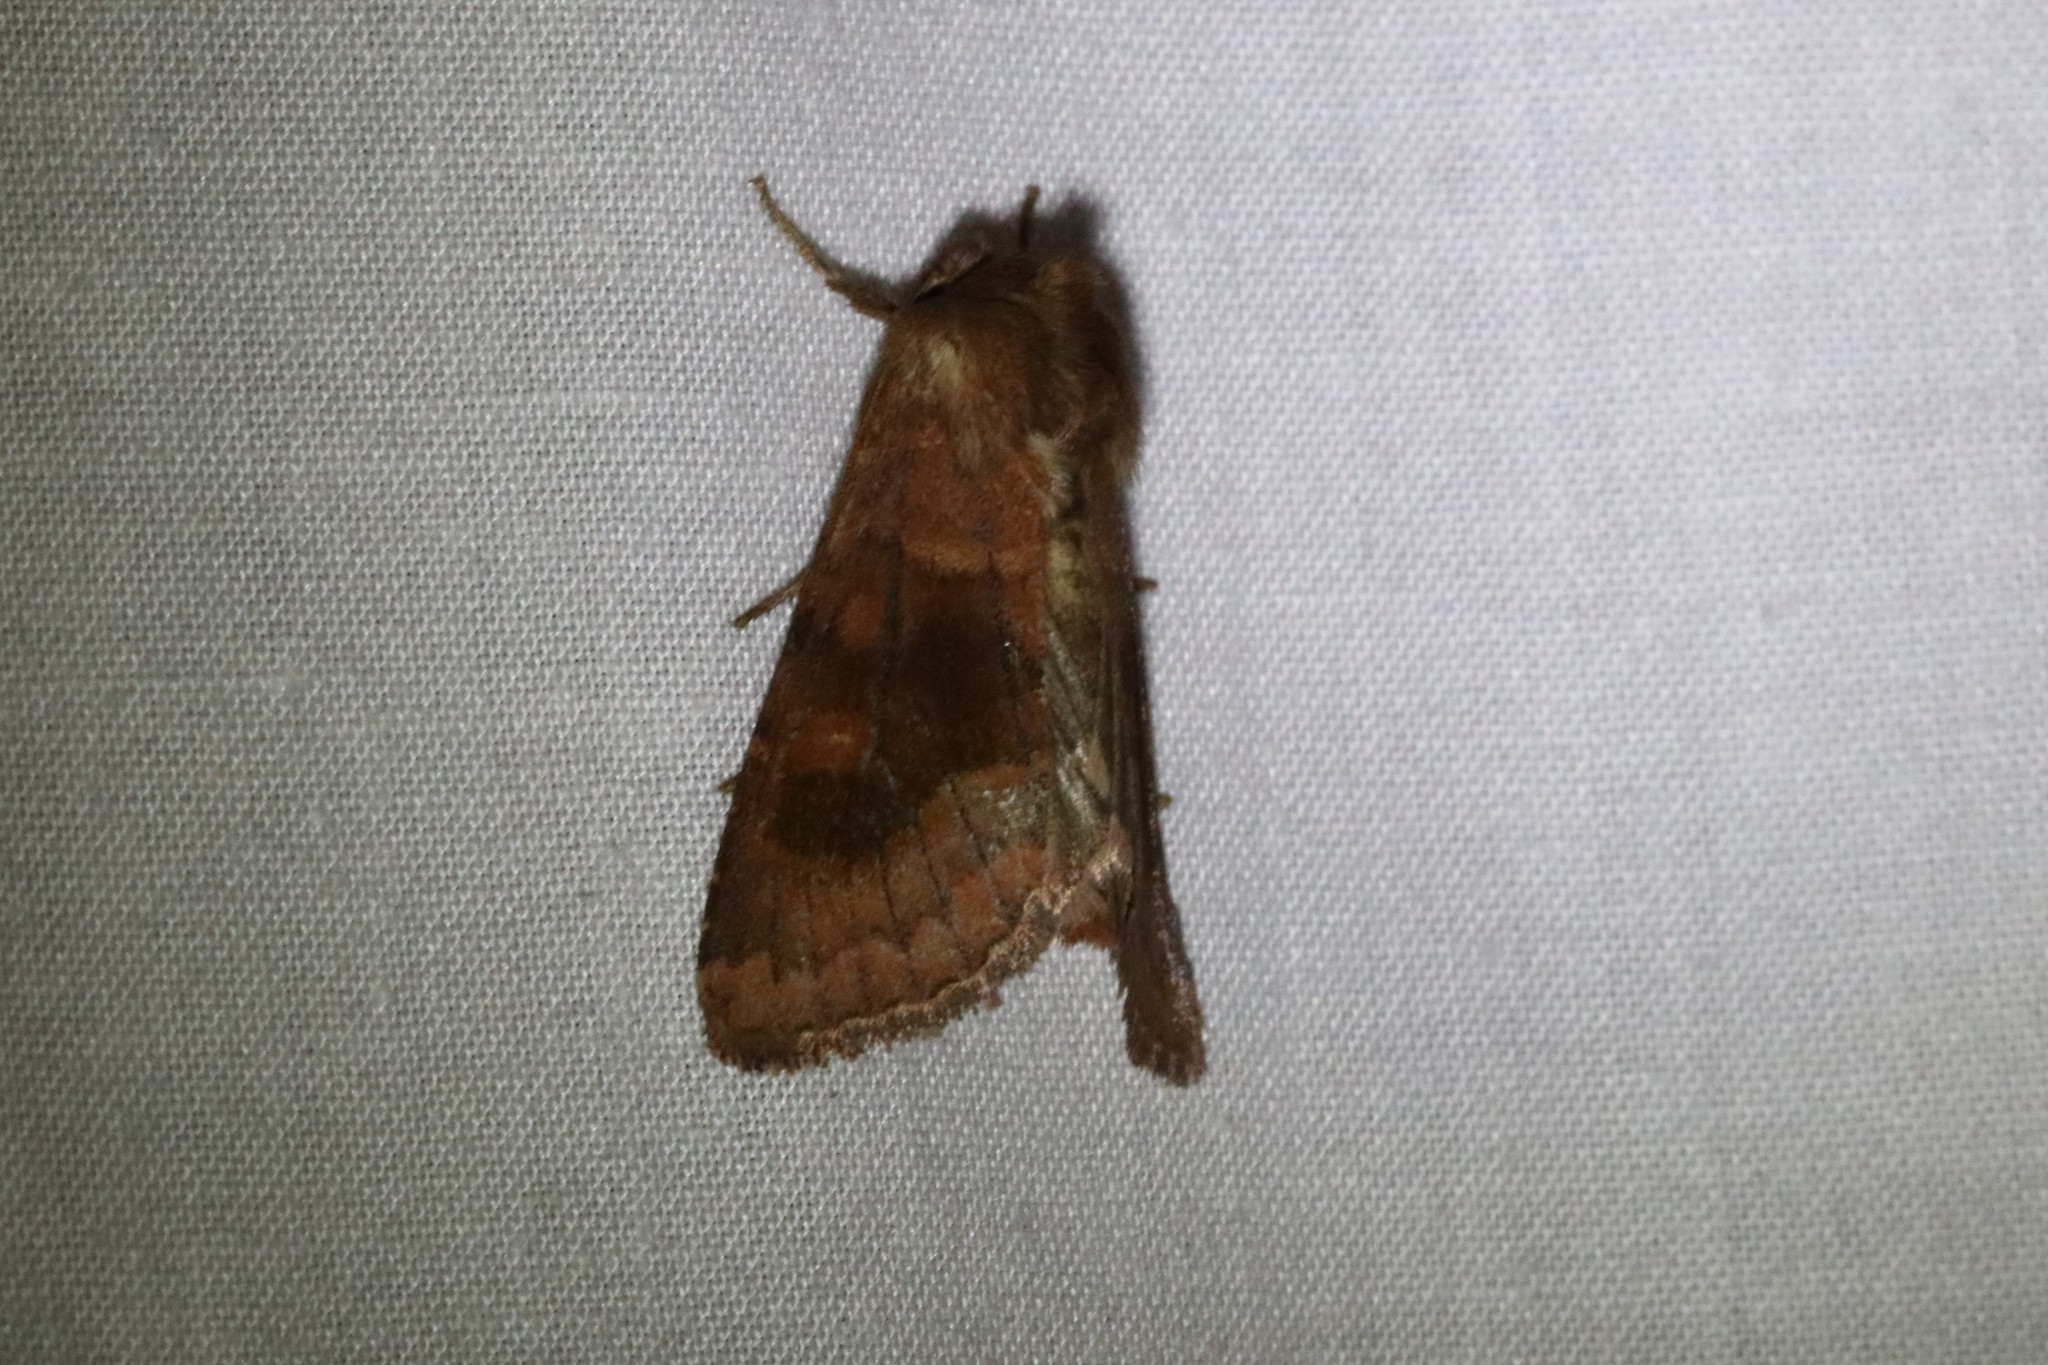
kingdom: Animalia
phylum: Arthropoda
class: Insecta
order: Lepidoptera
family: Noctuidae
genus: Nephelodes
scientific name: Nephelodes minians
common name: Bronzed cutworm
